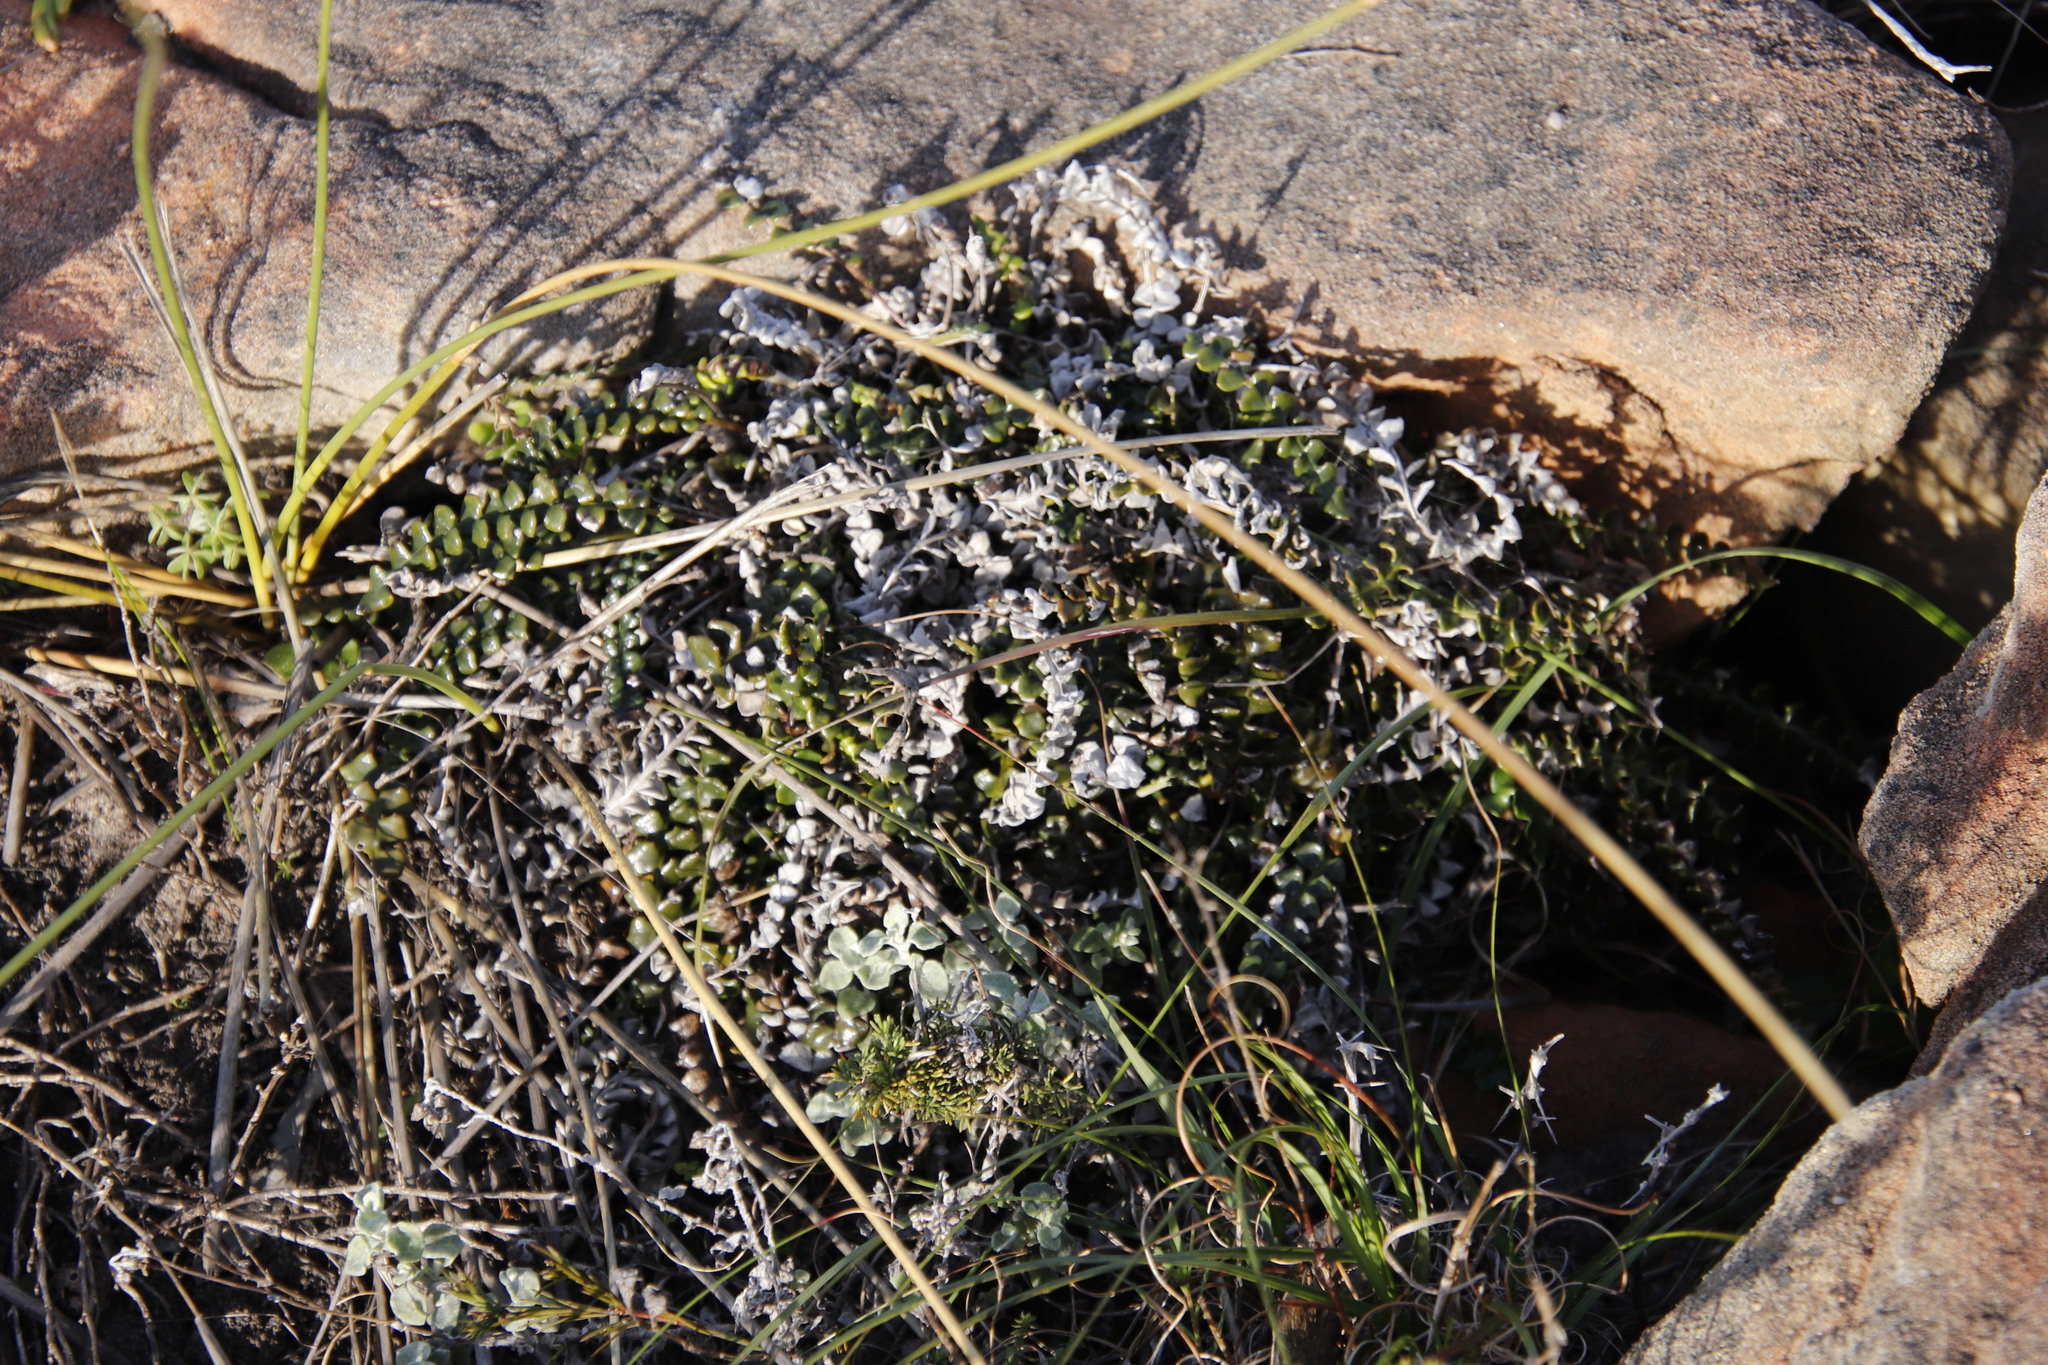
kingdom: Plantae
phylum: Tracheophyta
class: Magnoliopsida
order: Asterales
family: Asteraceae
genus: Gerbera
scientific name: Gerbera linnaei
